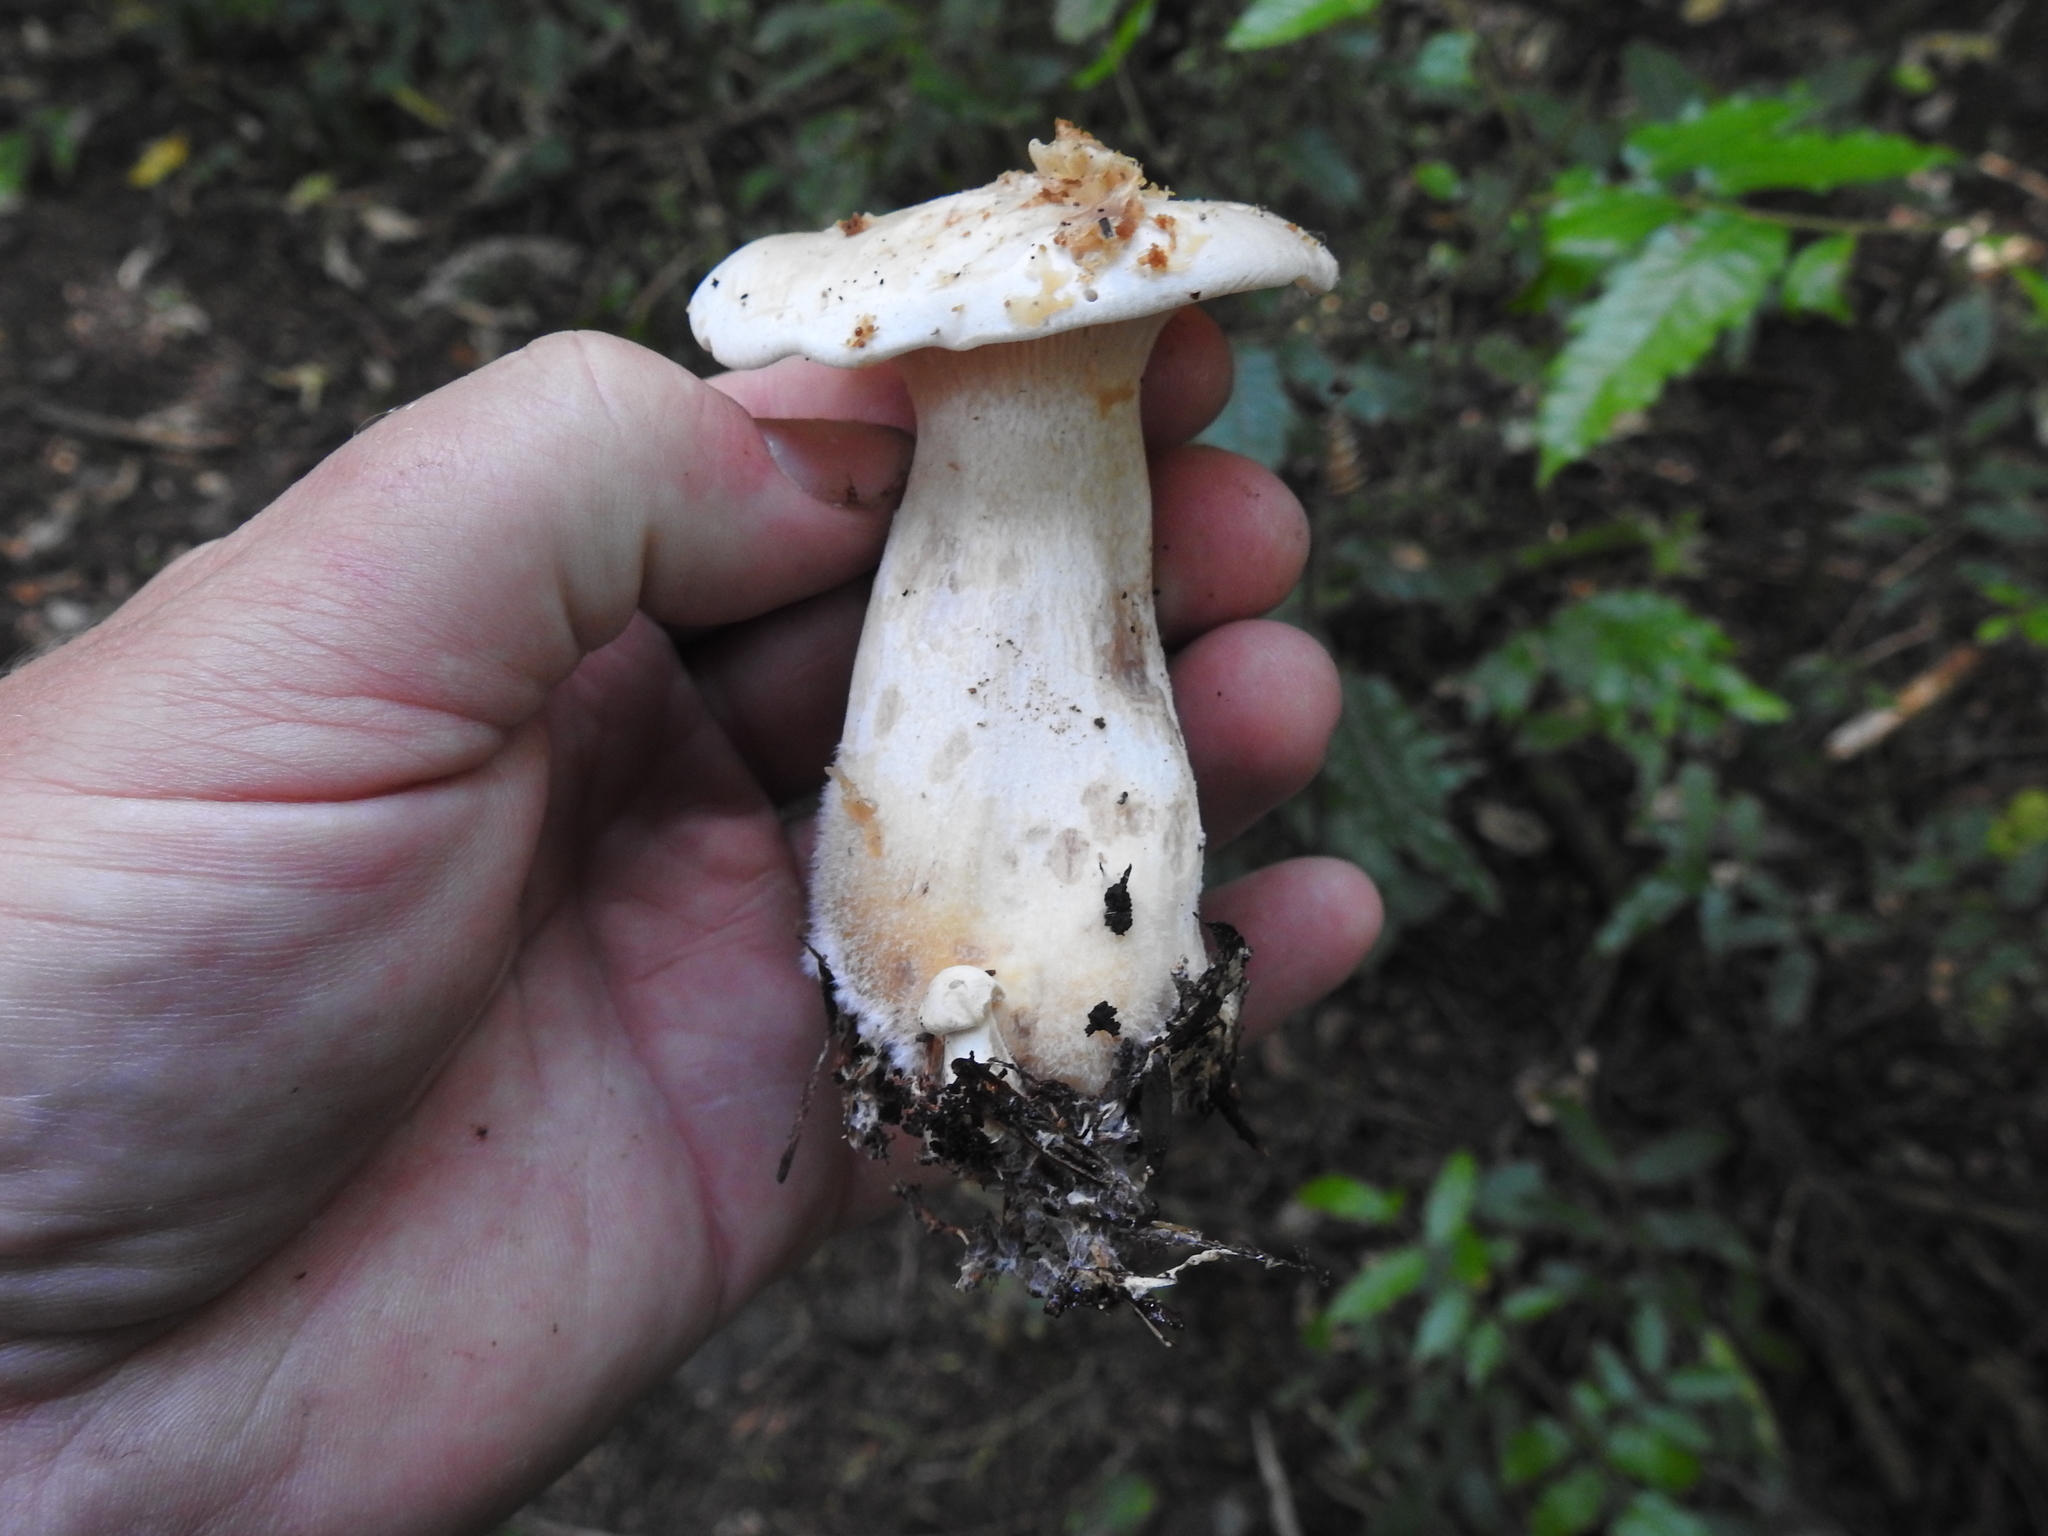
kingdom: Fungi
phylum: Basidiomycota
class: Agaricomycetes
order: Agaricales
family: Tricholomataceae
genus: Clitocybe
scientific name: Clitocybe nebularis
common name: Clouded agaric
